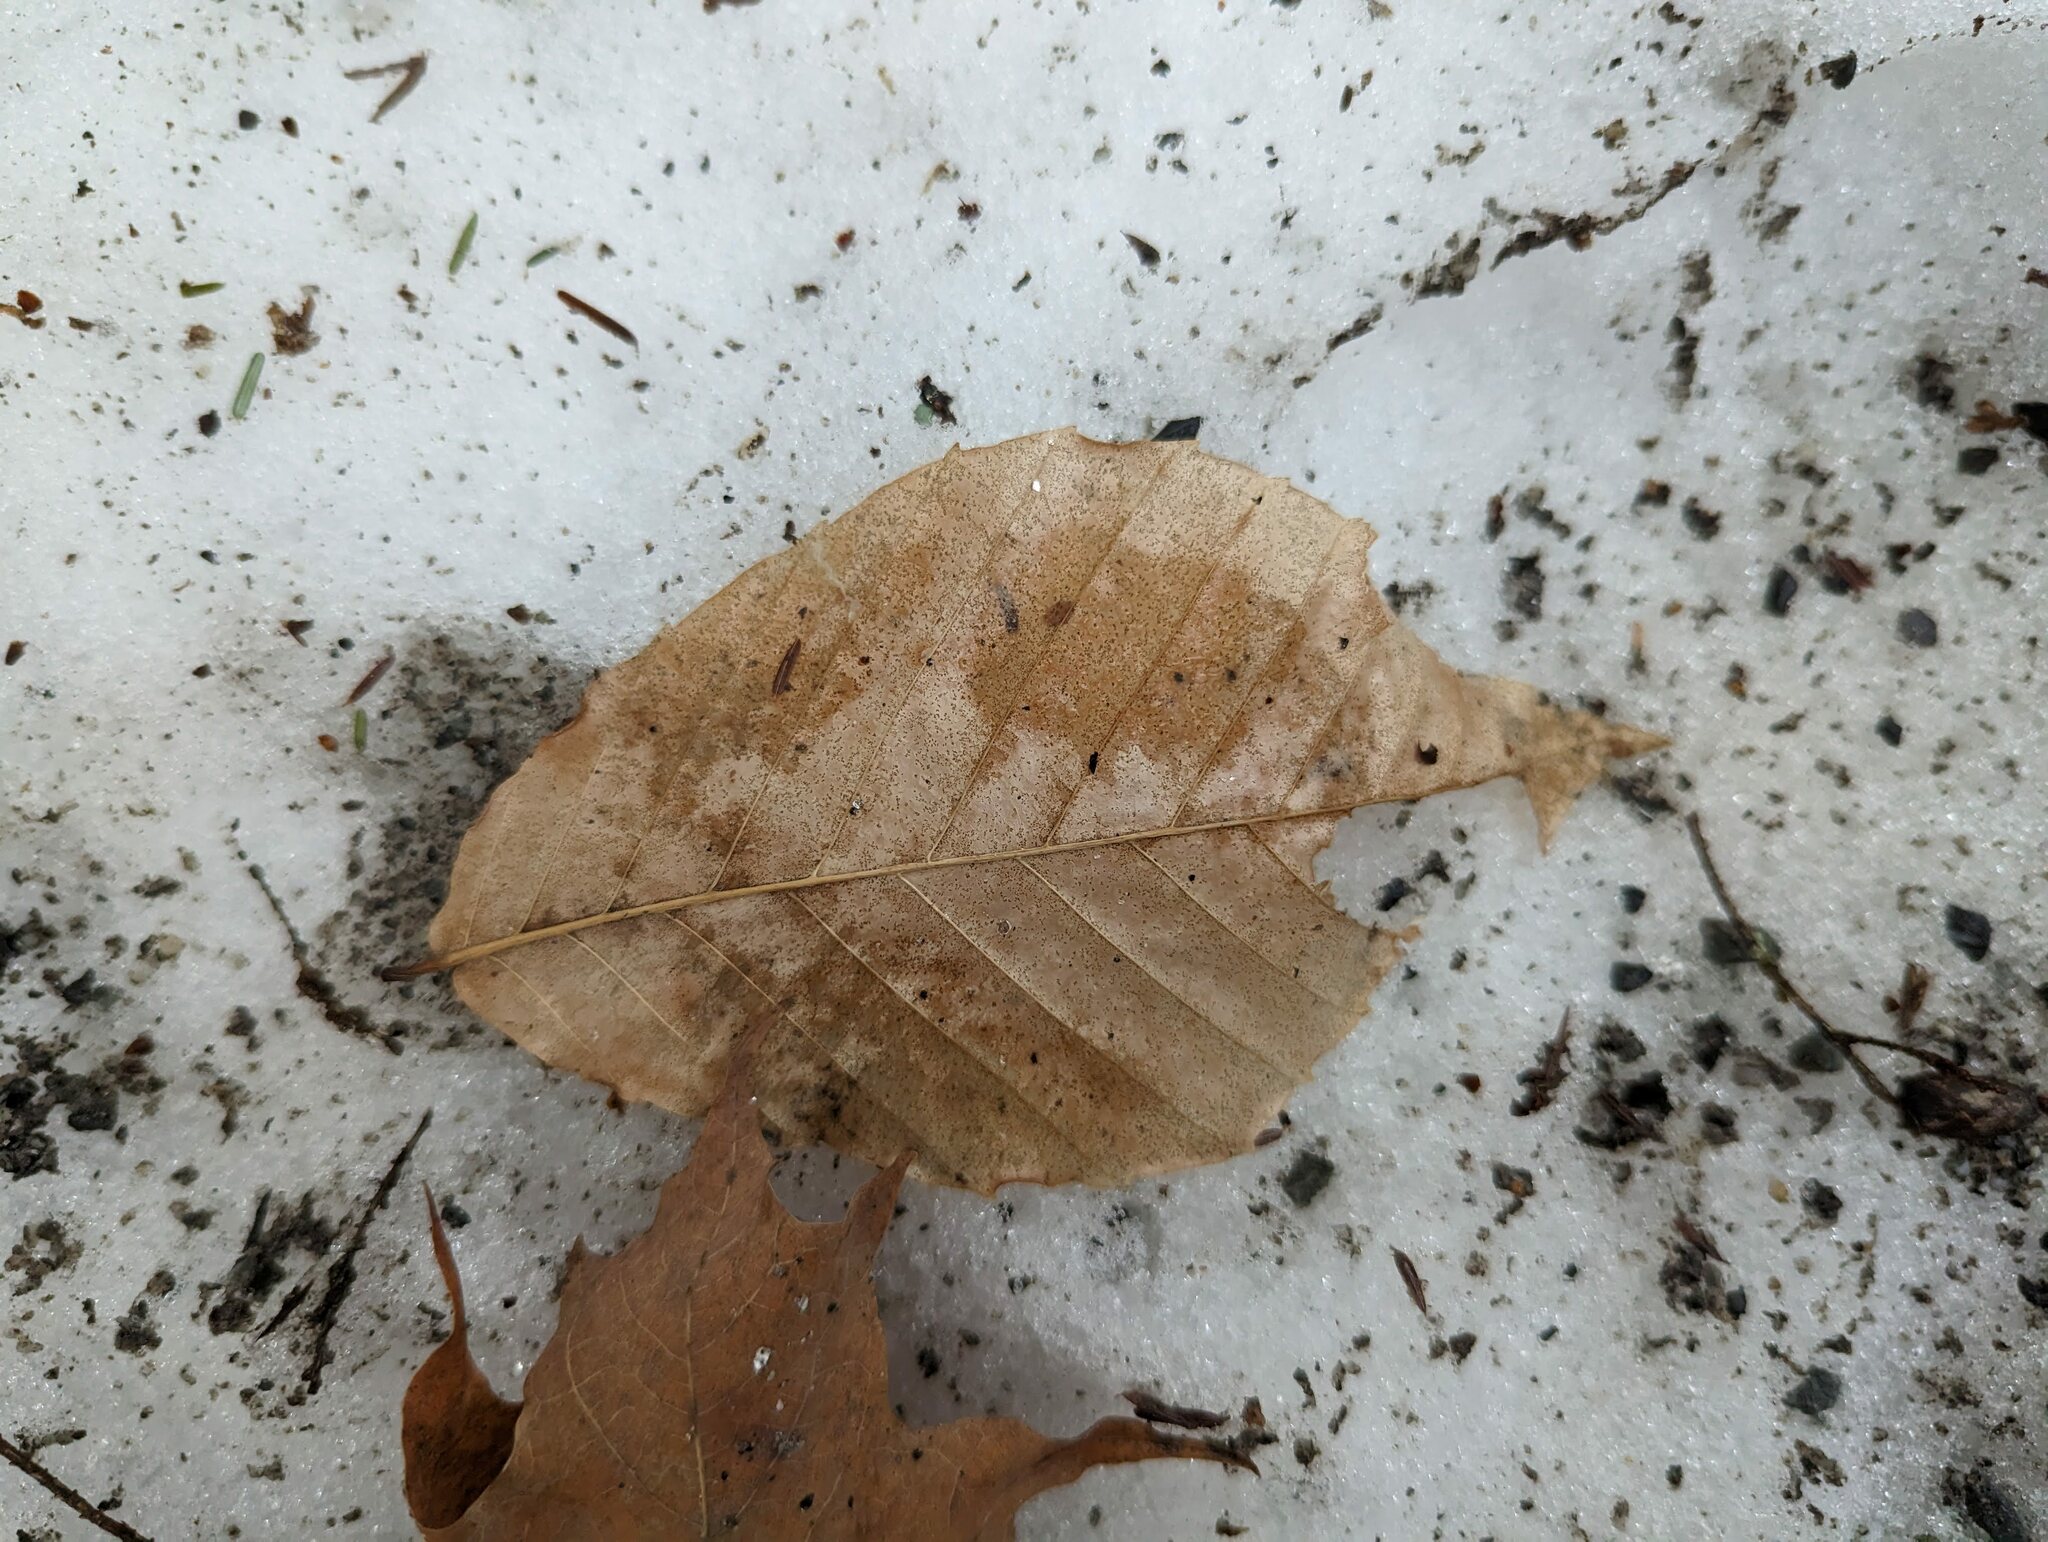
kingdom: Plantae
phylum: Tracheophyta
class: Magnoliopsida
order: Fagales
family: Fagaceae
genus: Fagus
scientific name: Fagus grandifolia
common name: American beech
